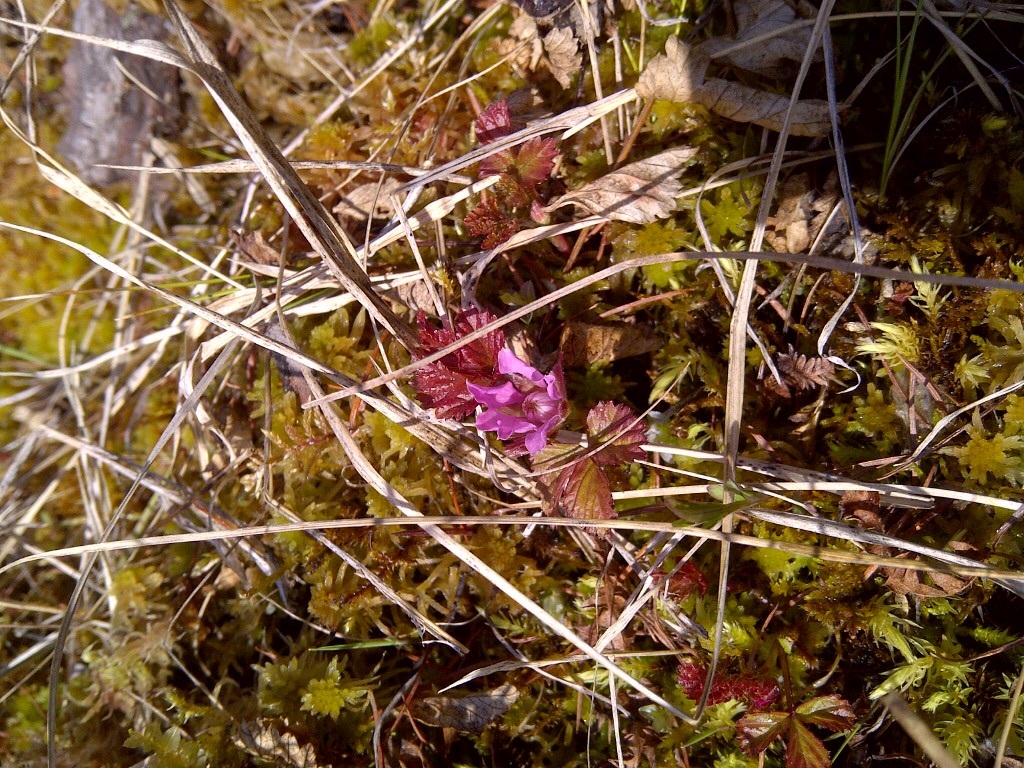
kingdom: Plantae
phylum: Tracheophyta
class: Magnoliopsida
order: Rosales
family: Rosaceae
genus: Rubus
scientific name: Rubus arcticus
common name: Arctic bramble
